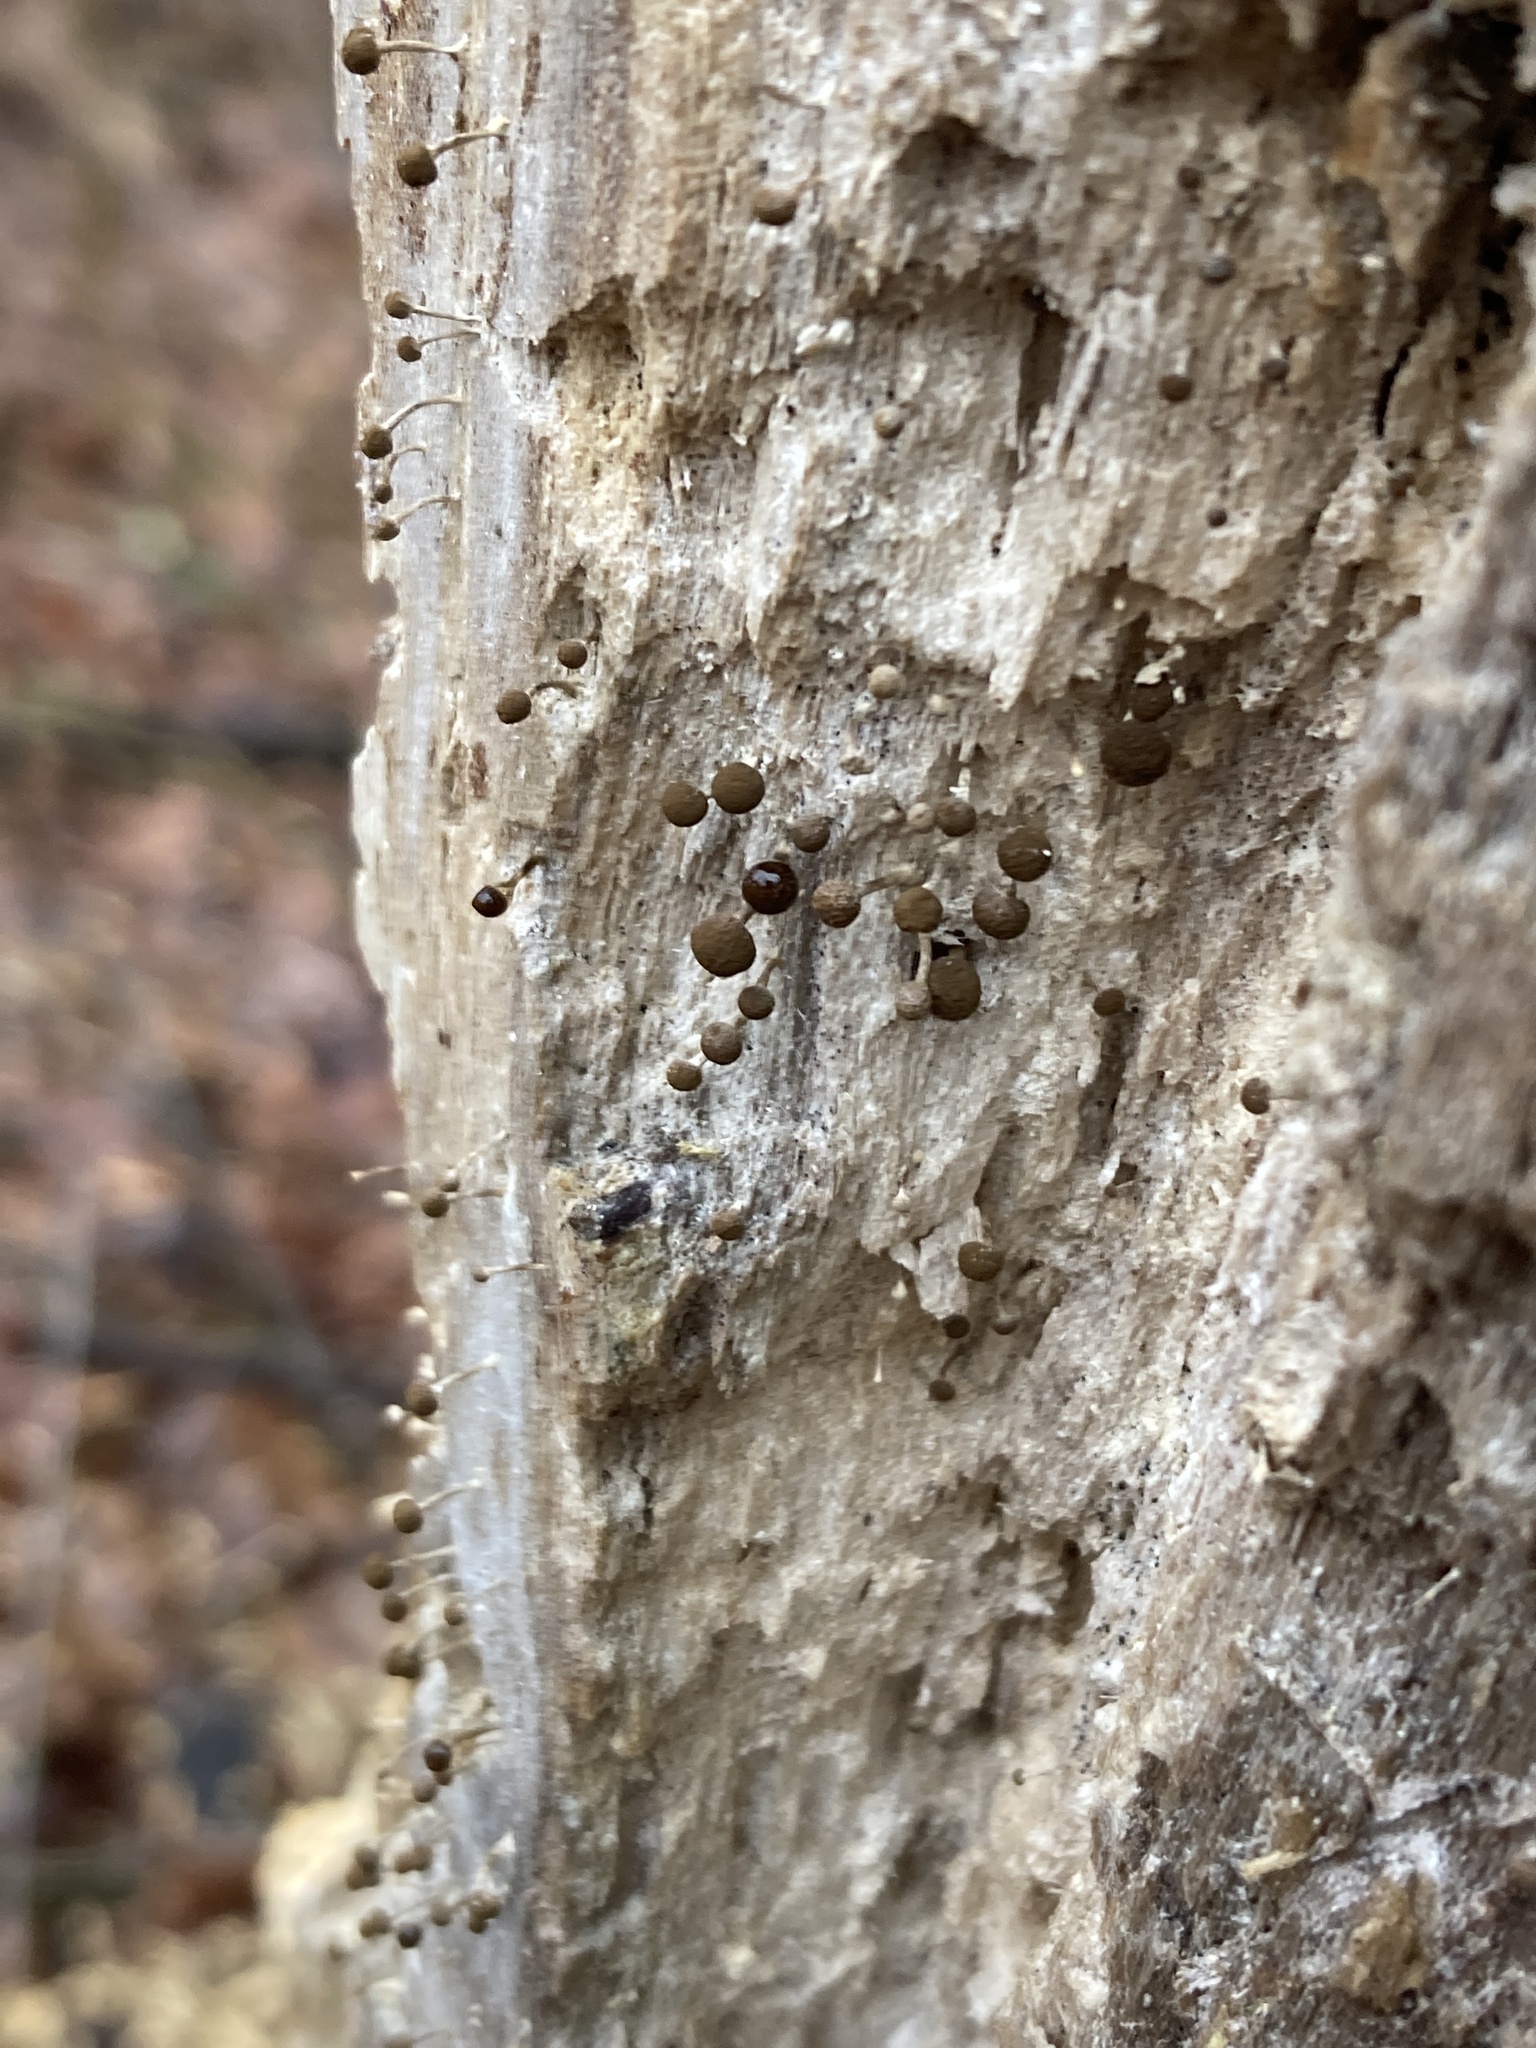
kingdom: Fungi
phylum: Basidiomycota
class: Atractiellomycetes
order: Atractiellales
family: Phleogenaceae
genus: Phleogena
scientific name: Phleogena faginea
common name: Fenugreek stalkball
